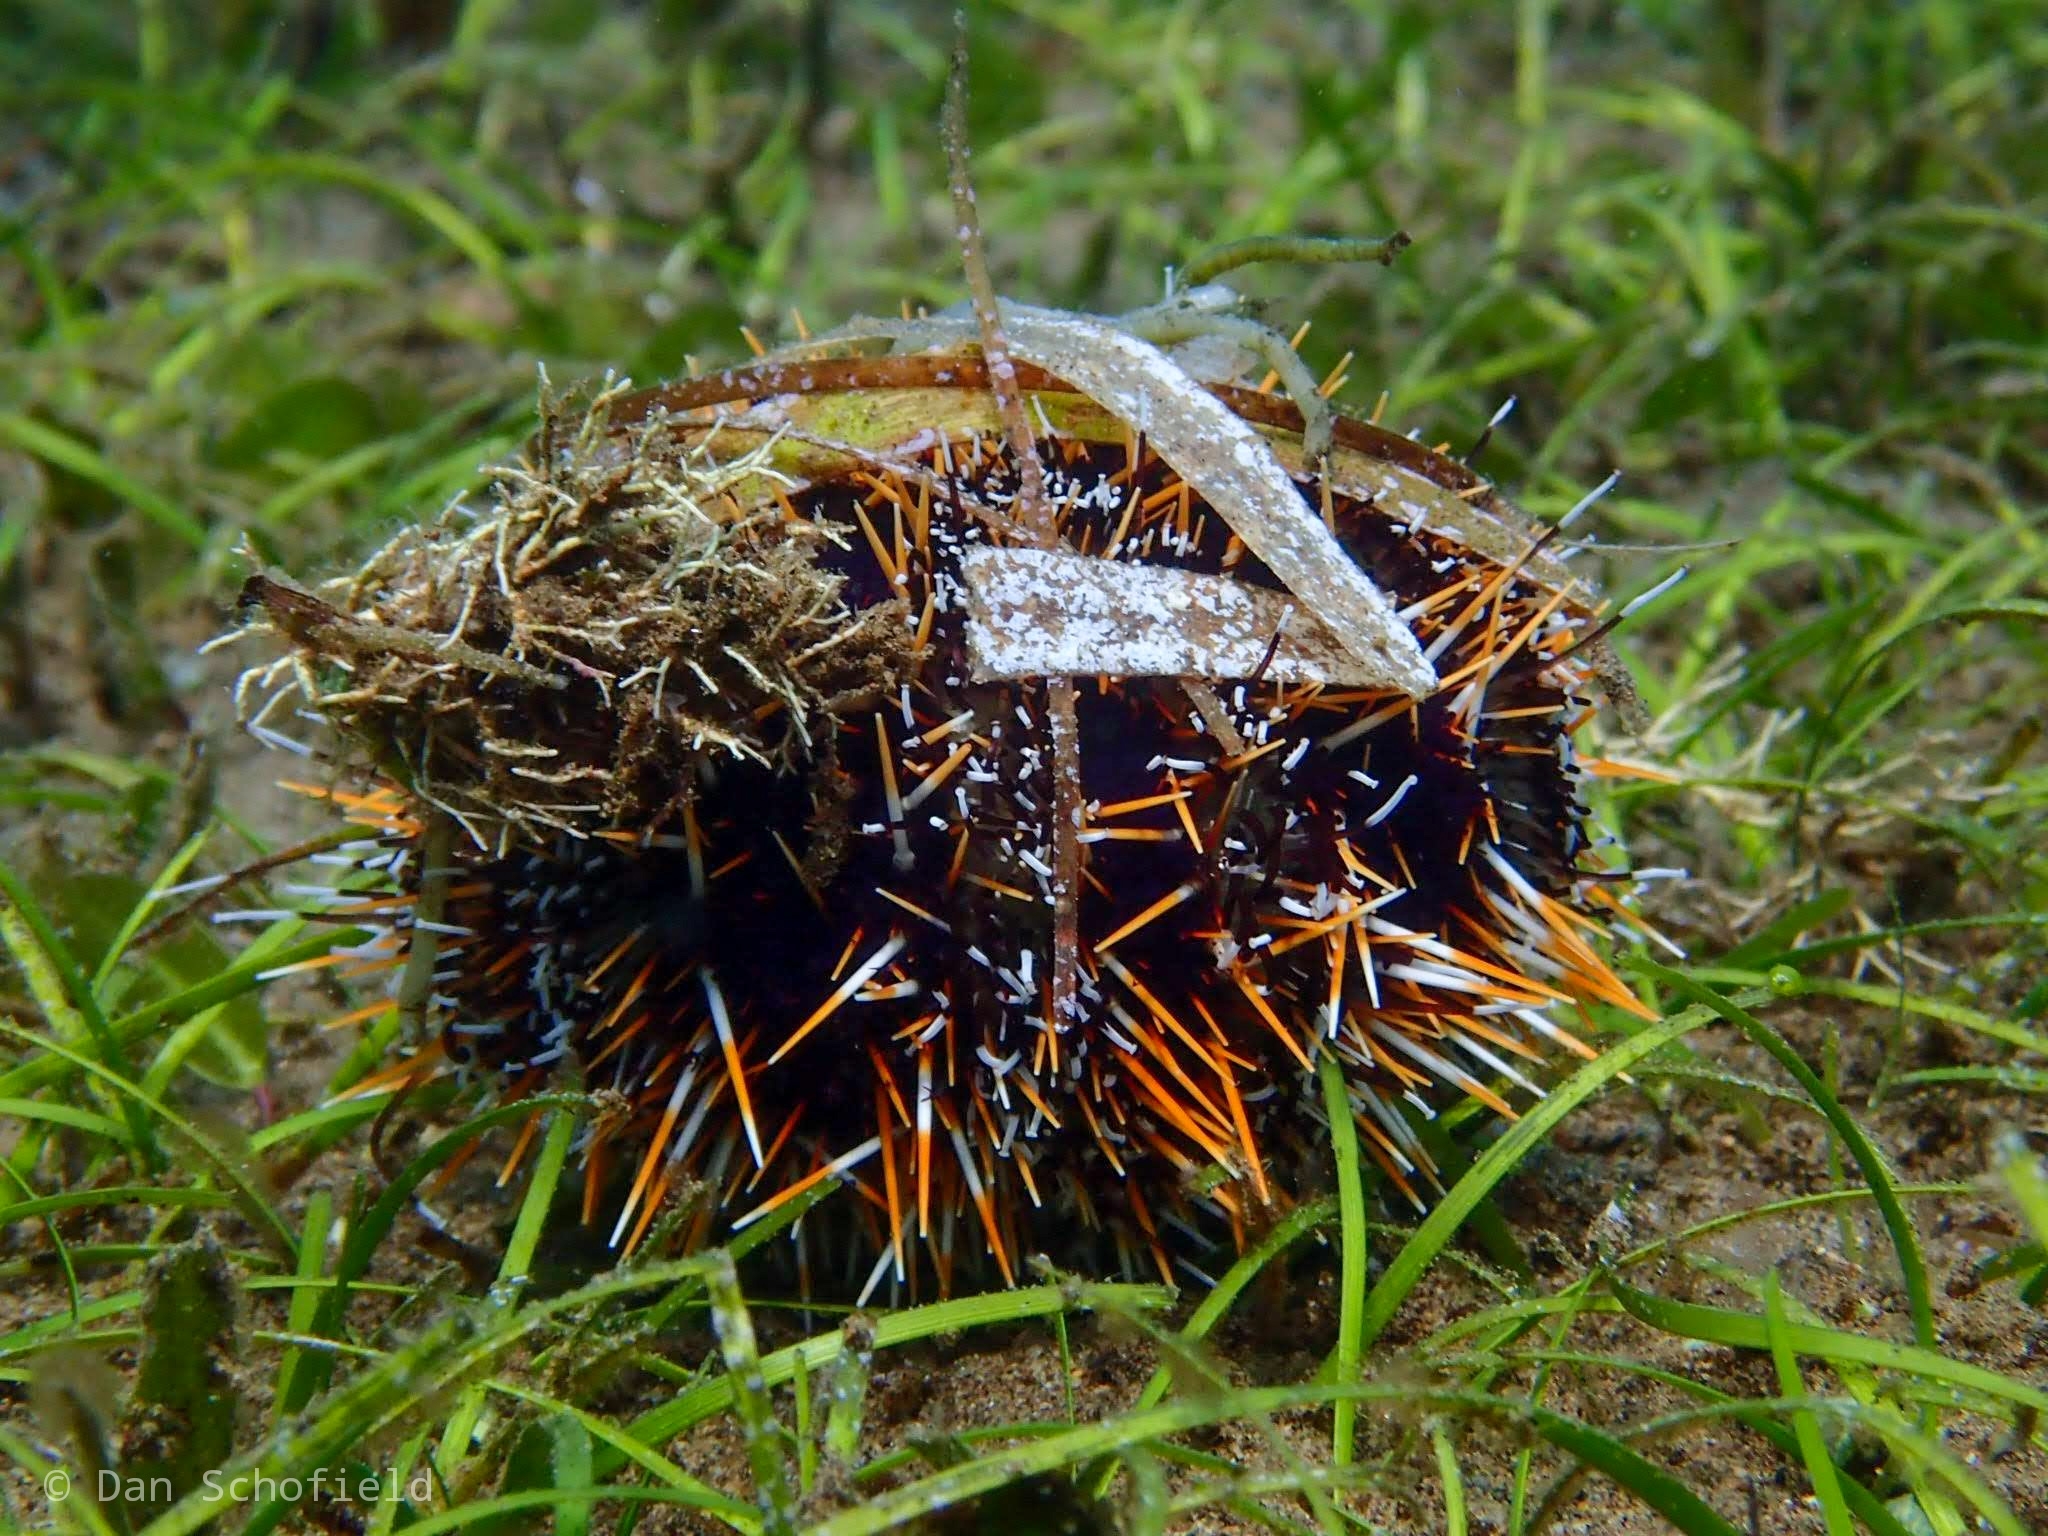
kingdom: Animalia
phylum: Echinodermata
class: Echinoidea
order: Camarodonta
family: Toxopneustidae
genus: Tripneustes
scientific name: Tripneustes gratilla
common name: Bischofsmützenseeigel
